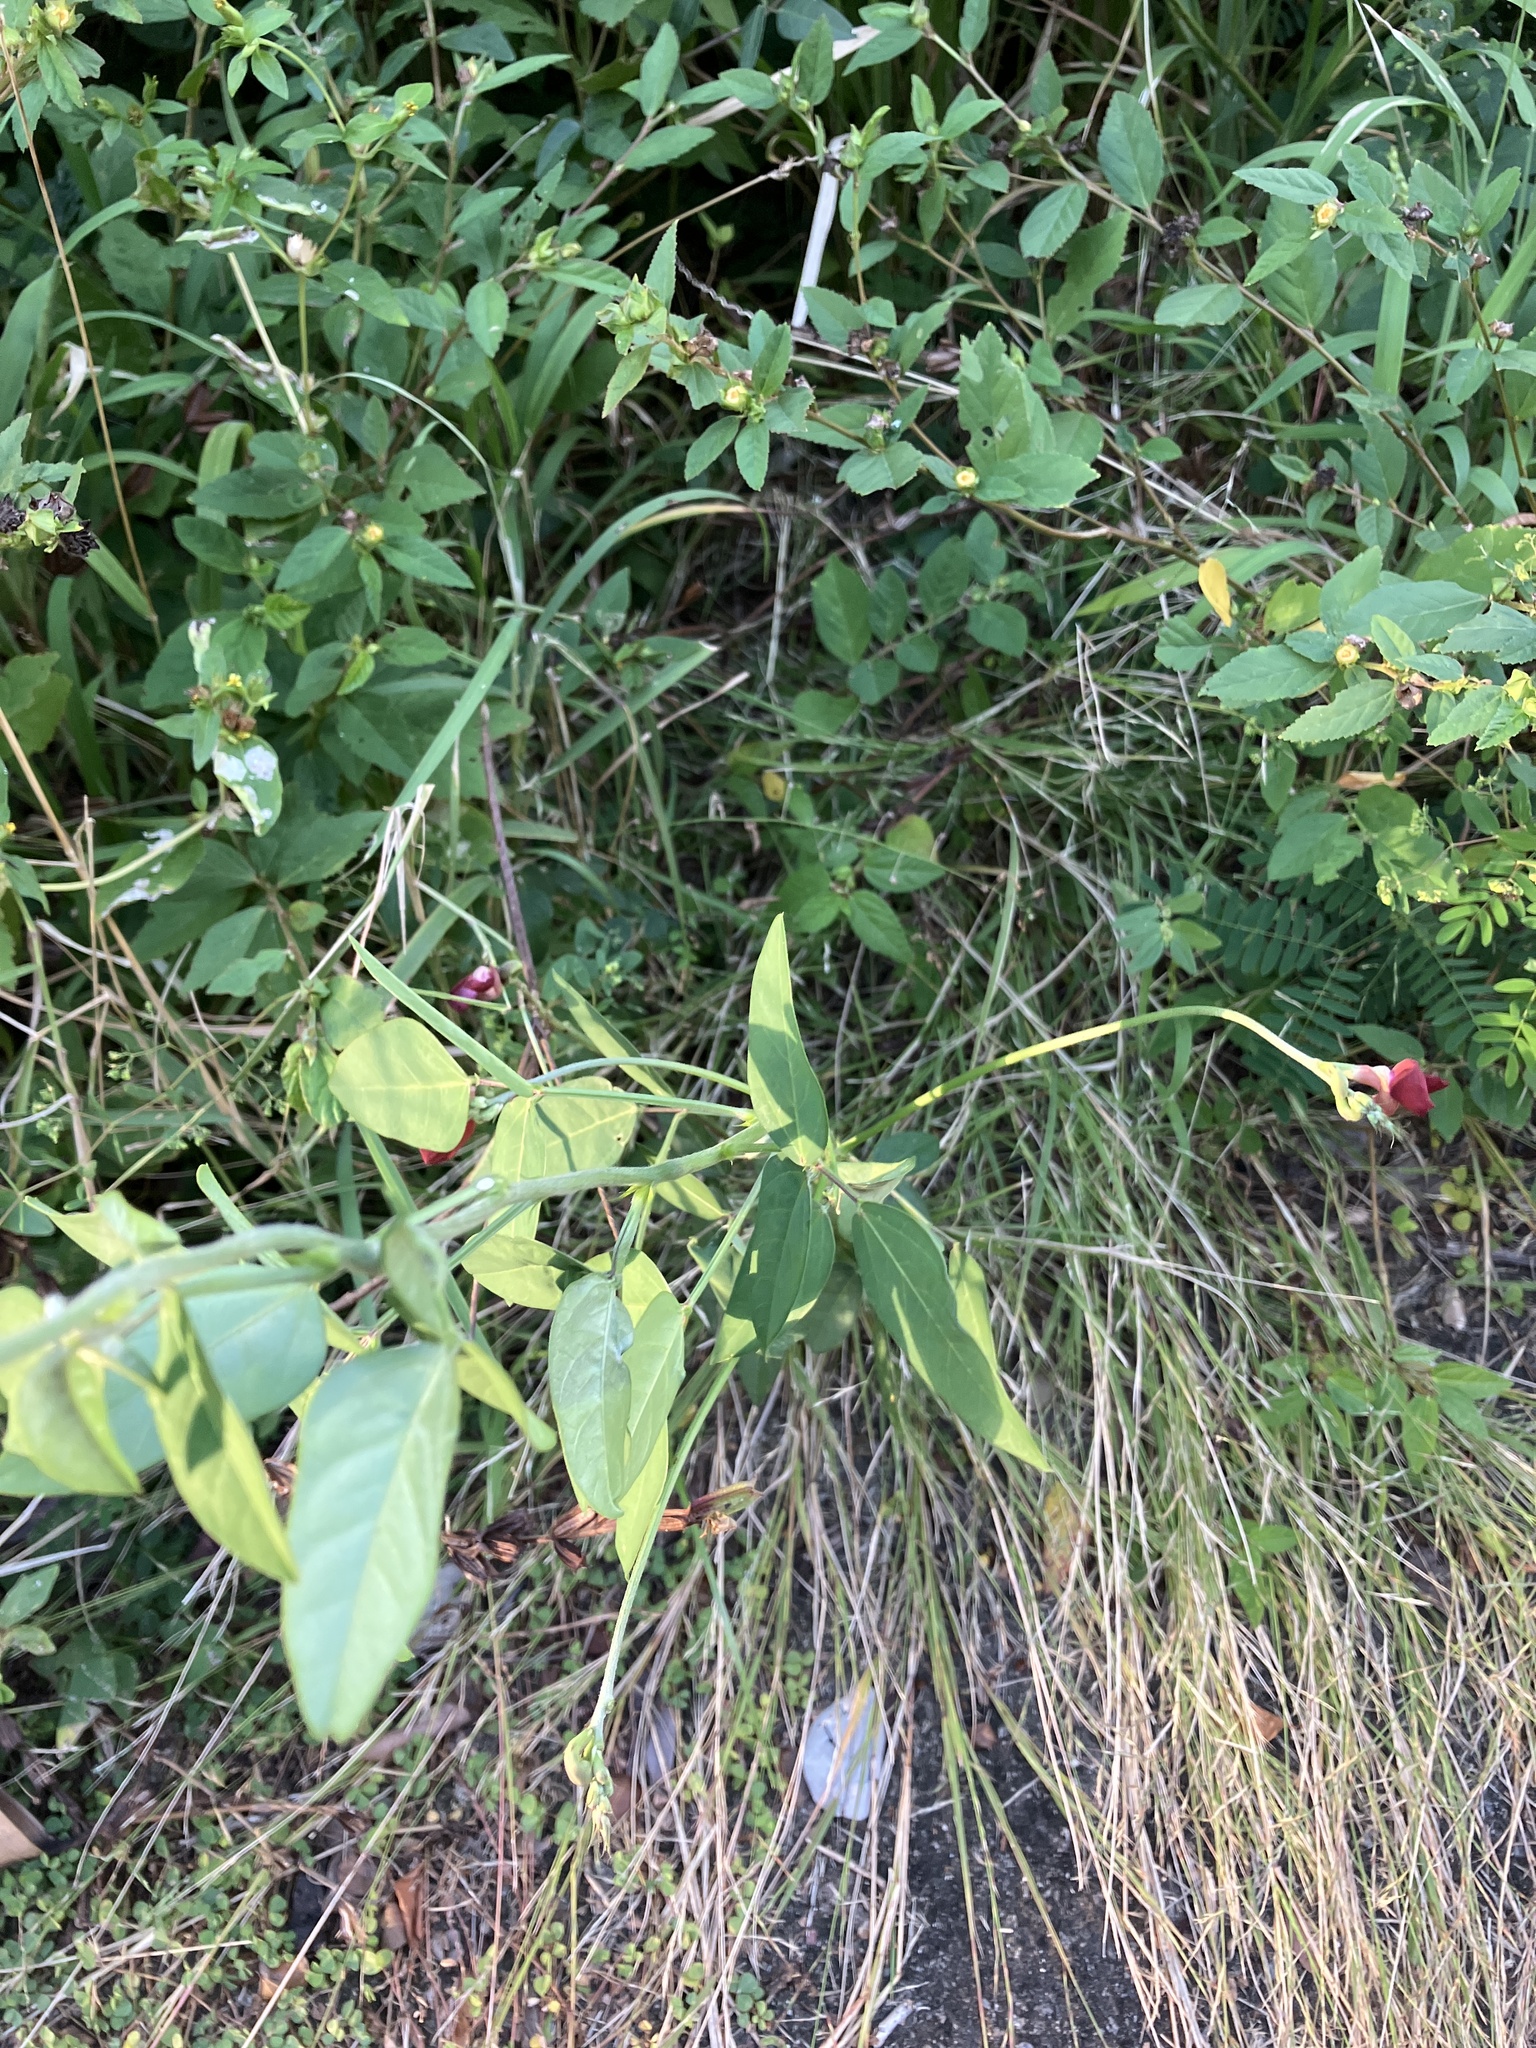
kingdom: Plantae
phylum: Tracheophyta
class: Magnoliopsida
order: Fabales
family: Fabaceae
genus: Macroptilium
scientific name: Macroptilium lathyroides
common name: Wild bushbean
